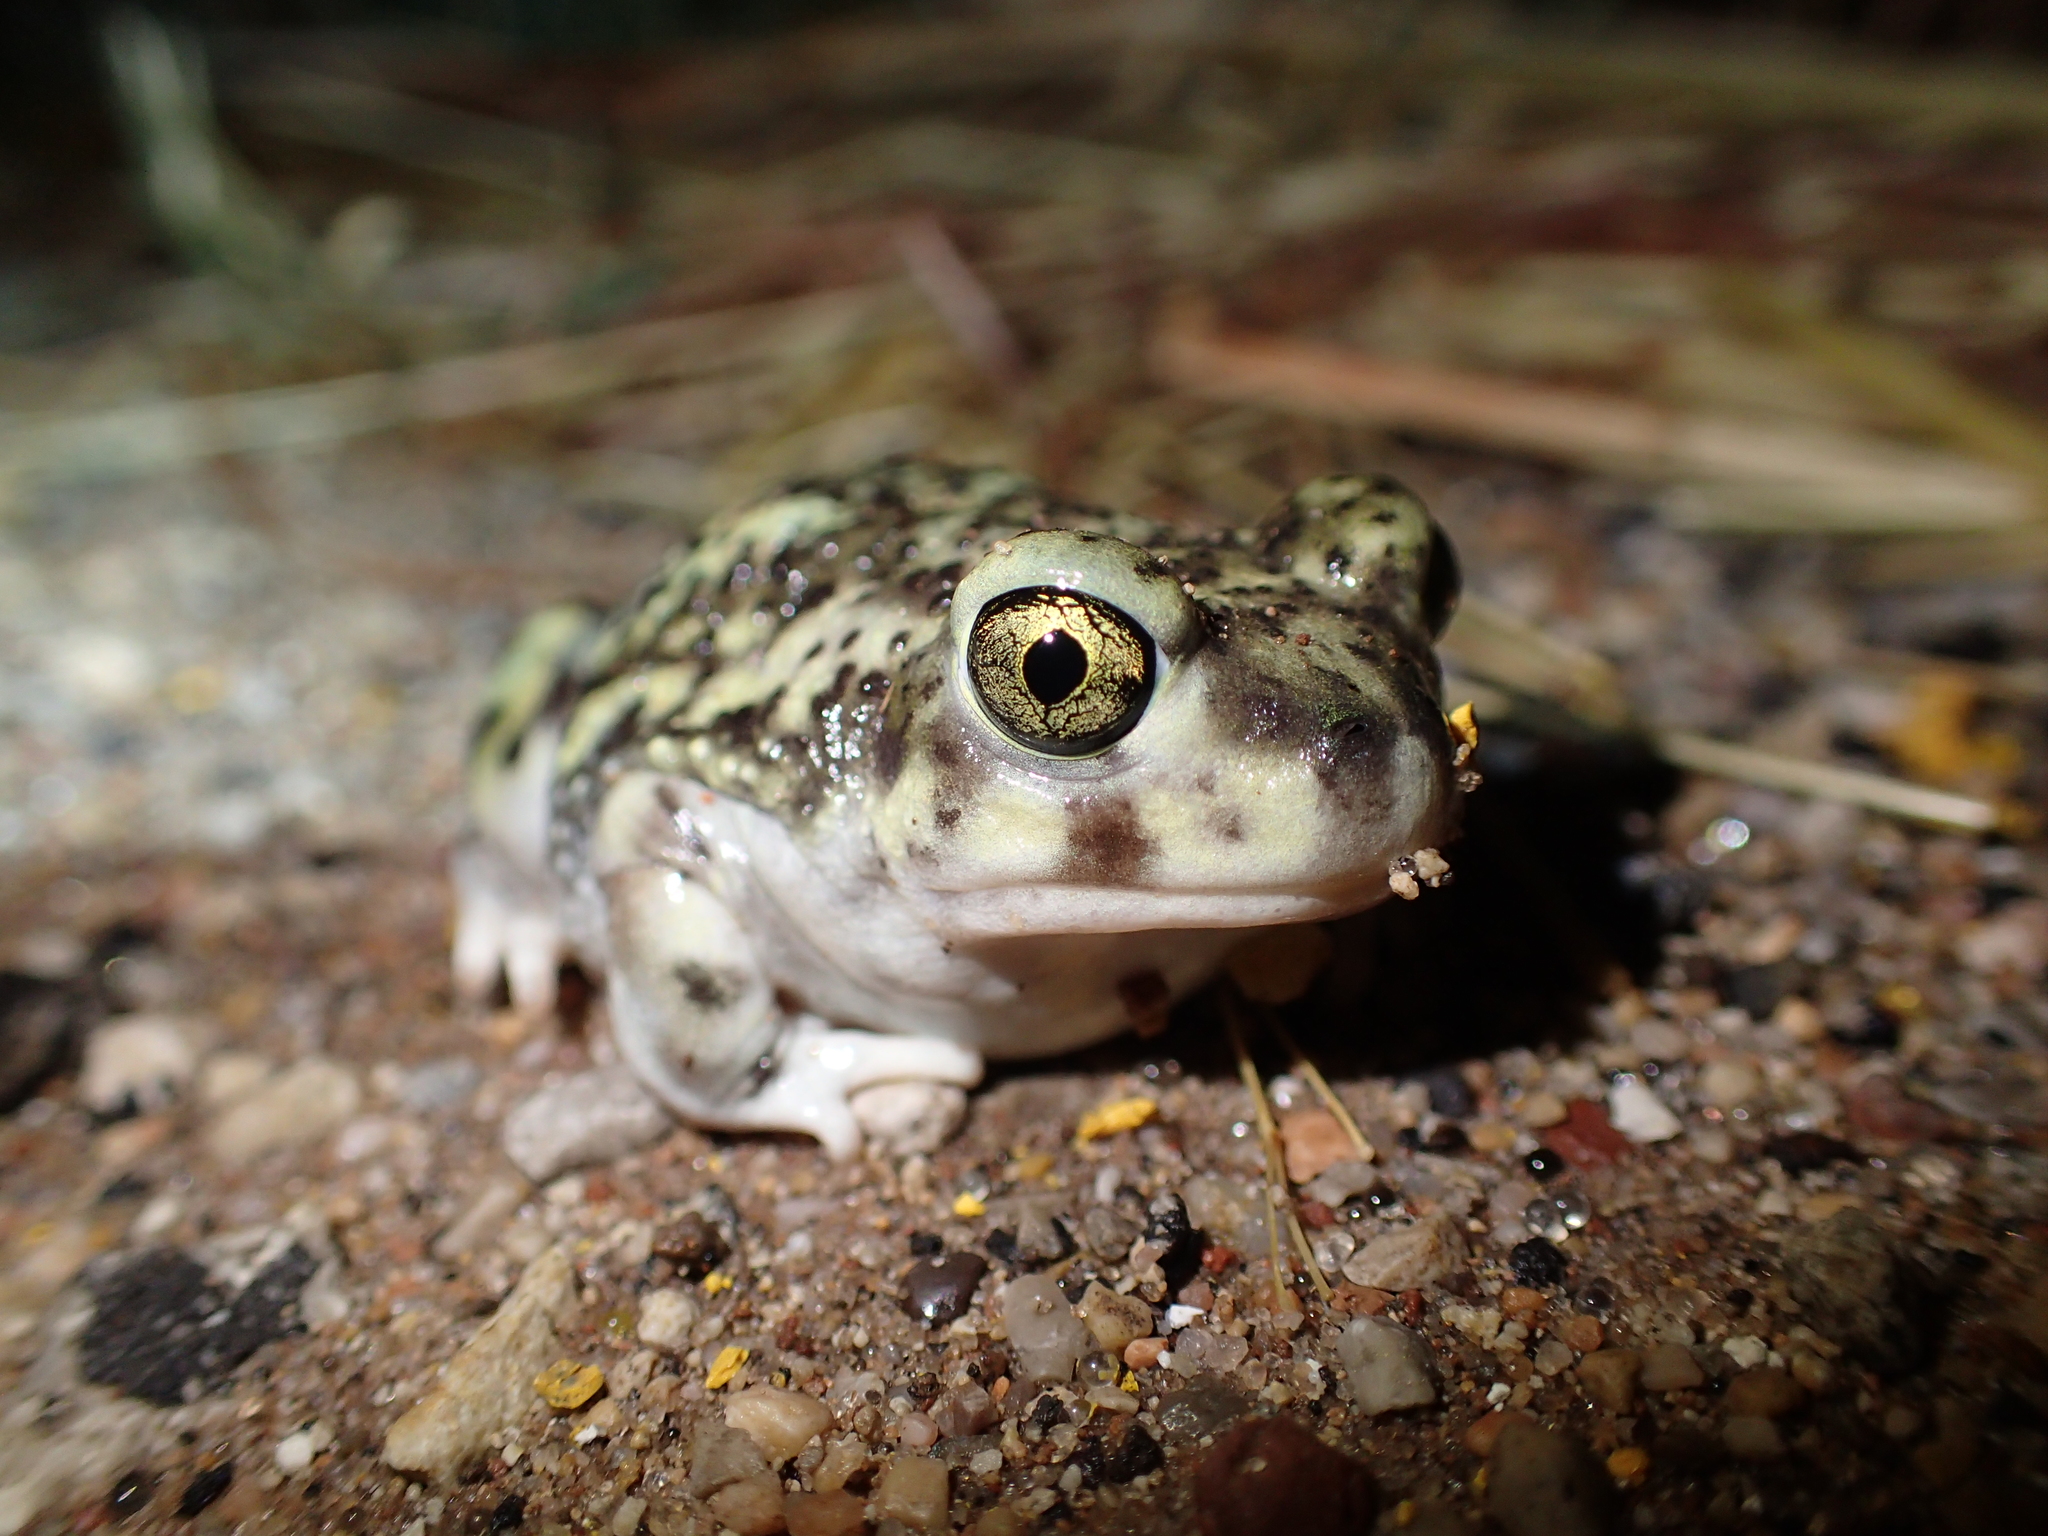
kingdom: Animalia
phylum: Chordata
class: Amphibia
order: Anura
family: Scaphiopodidae
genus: Scaphiopus
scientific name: Scaphiopus couchii
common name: Couch's spadefoot toad
